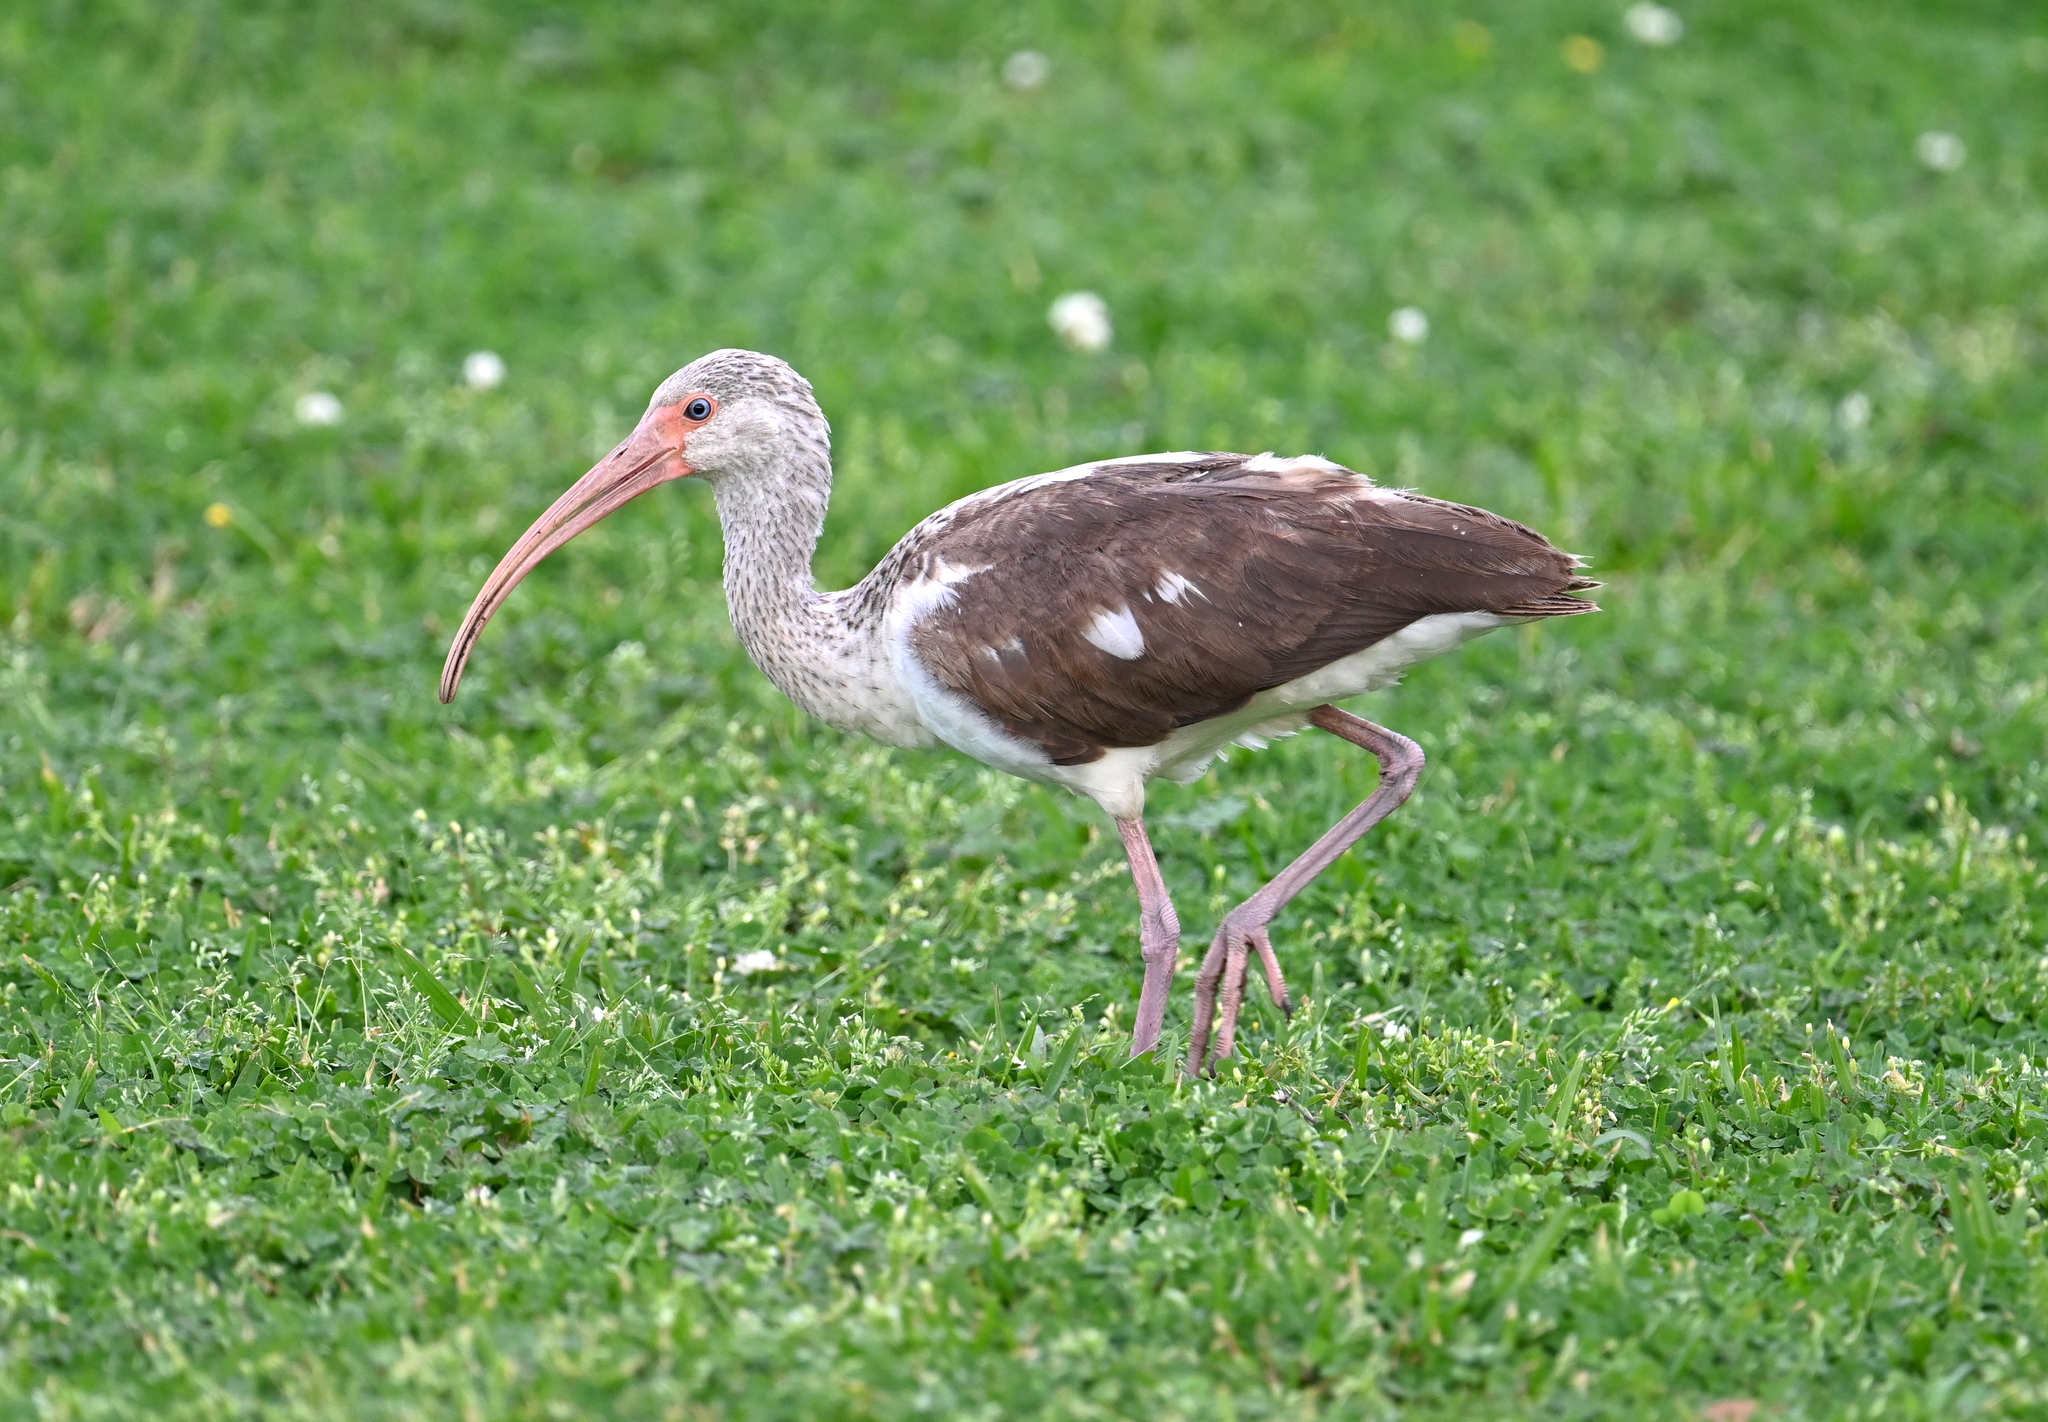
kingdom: Animalia
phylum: Chordata
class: Aves
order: Pelecaniformes
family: Threskiornithidae
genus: Eudocimus
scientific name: Eudocimus albus
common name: White ibis
